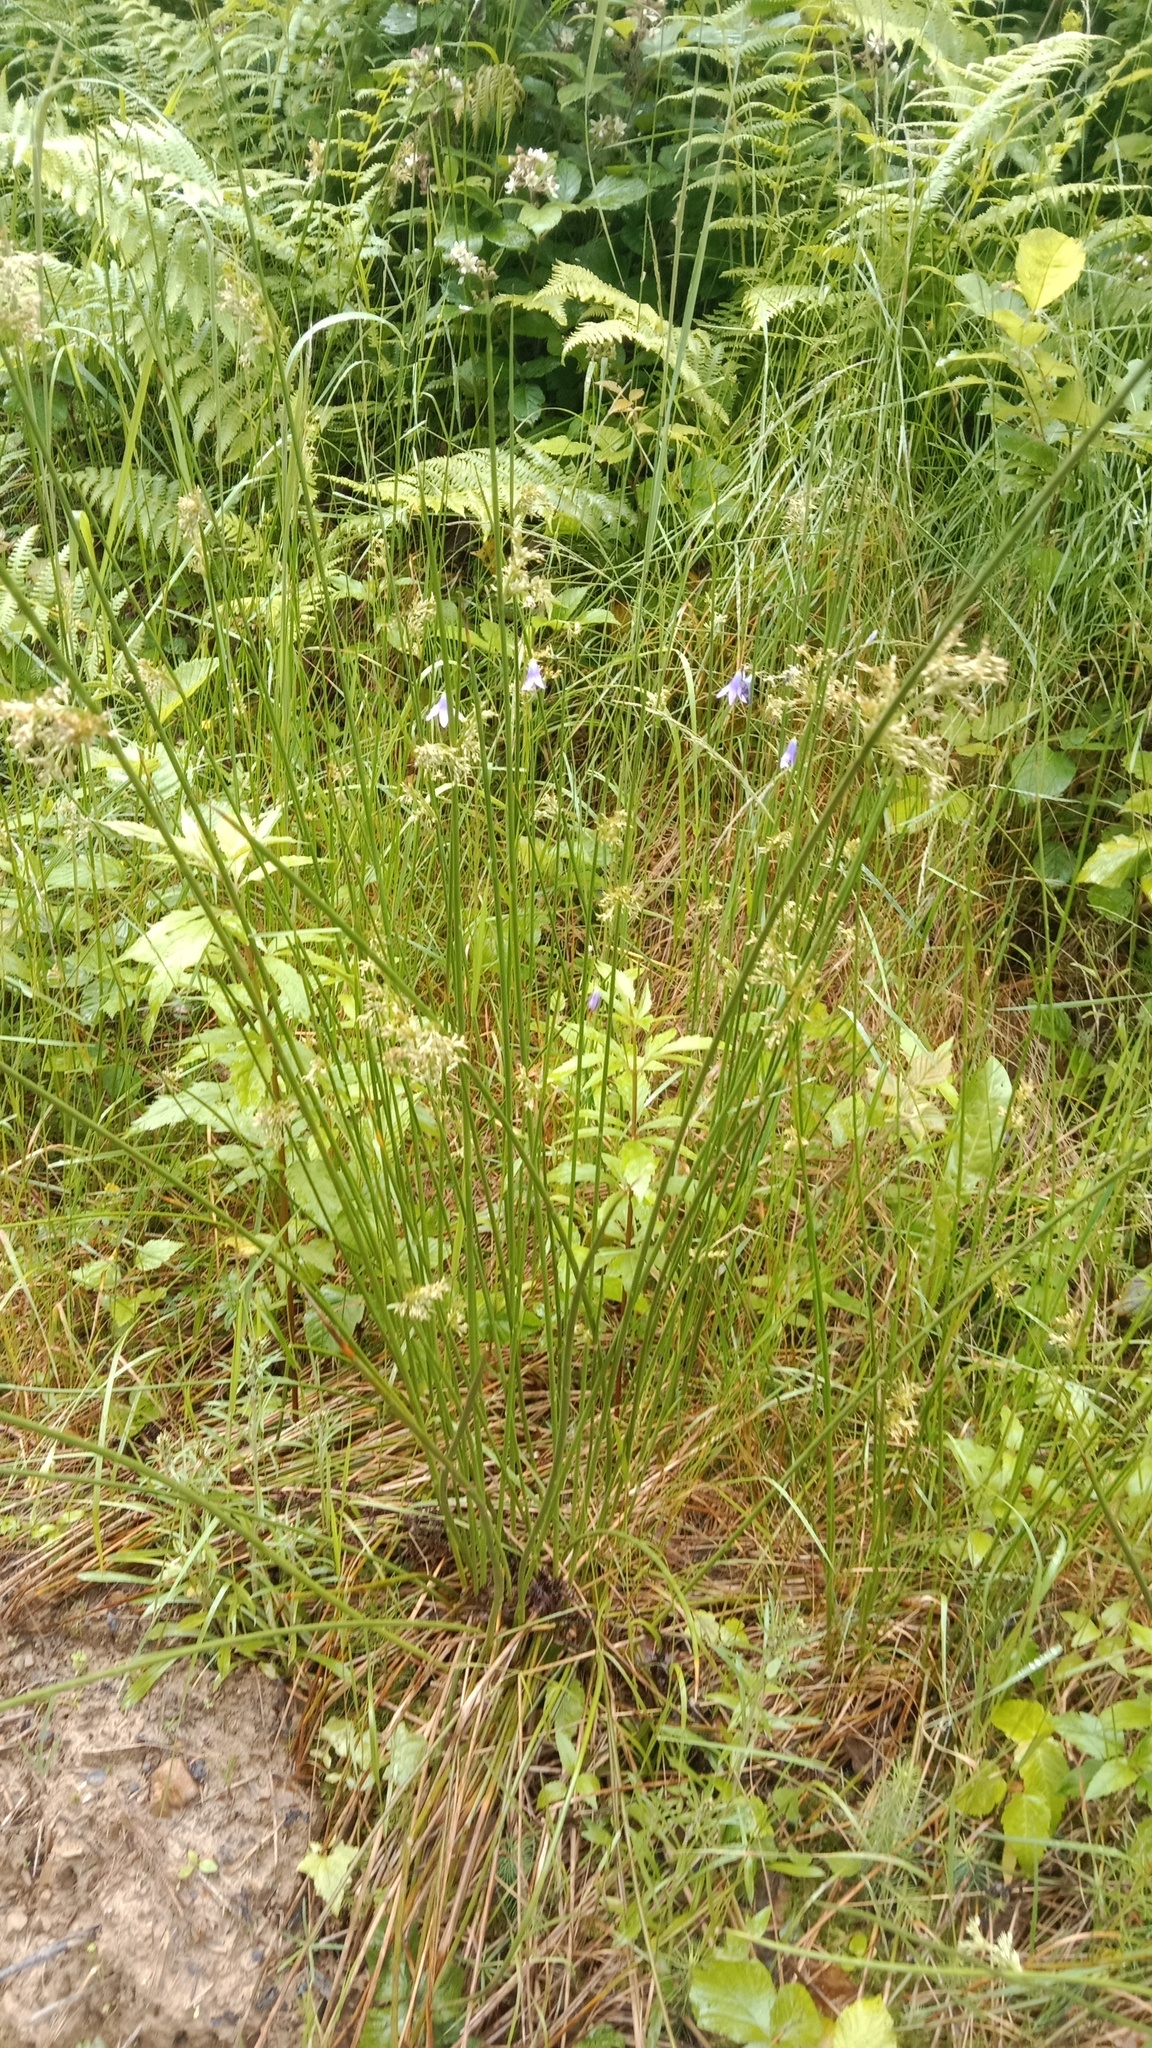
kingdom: Plantae
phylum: Tracheophyta
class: Liliopsida
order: Poales
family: Juncaceae
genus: Juncus
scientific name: Juncus effusus
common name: Soft rush
